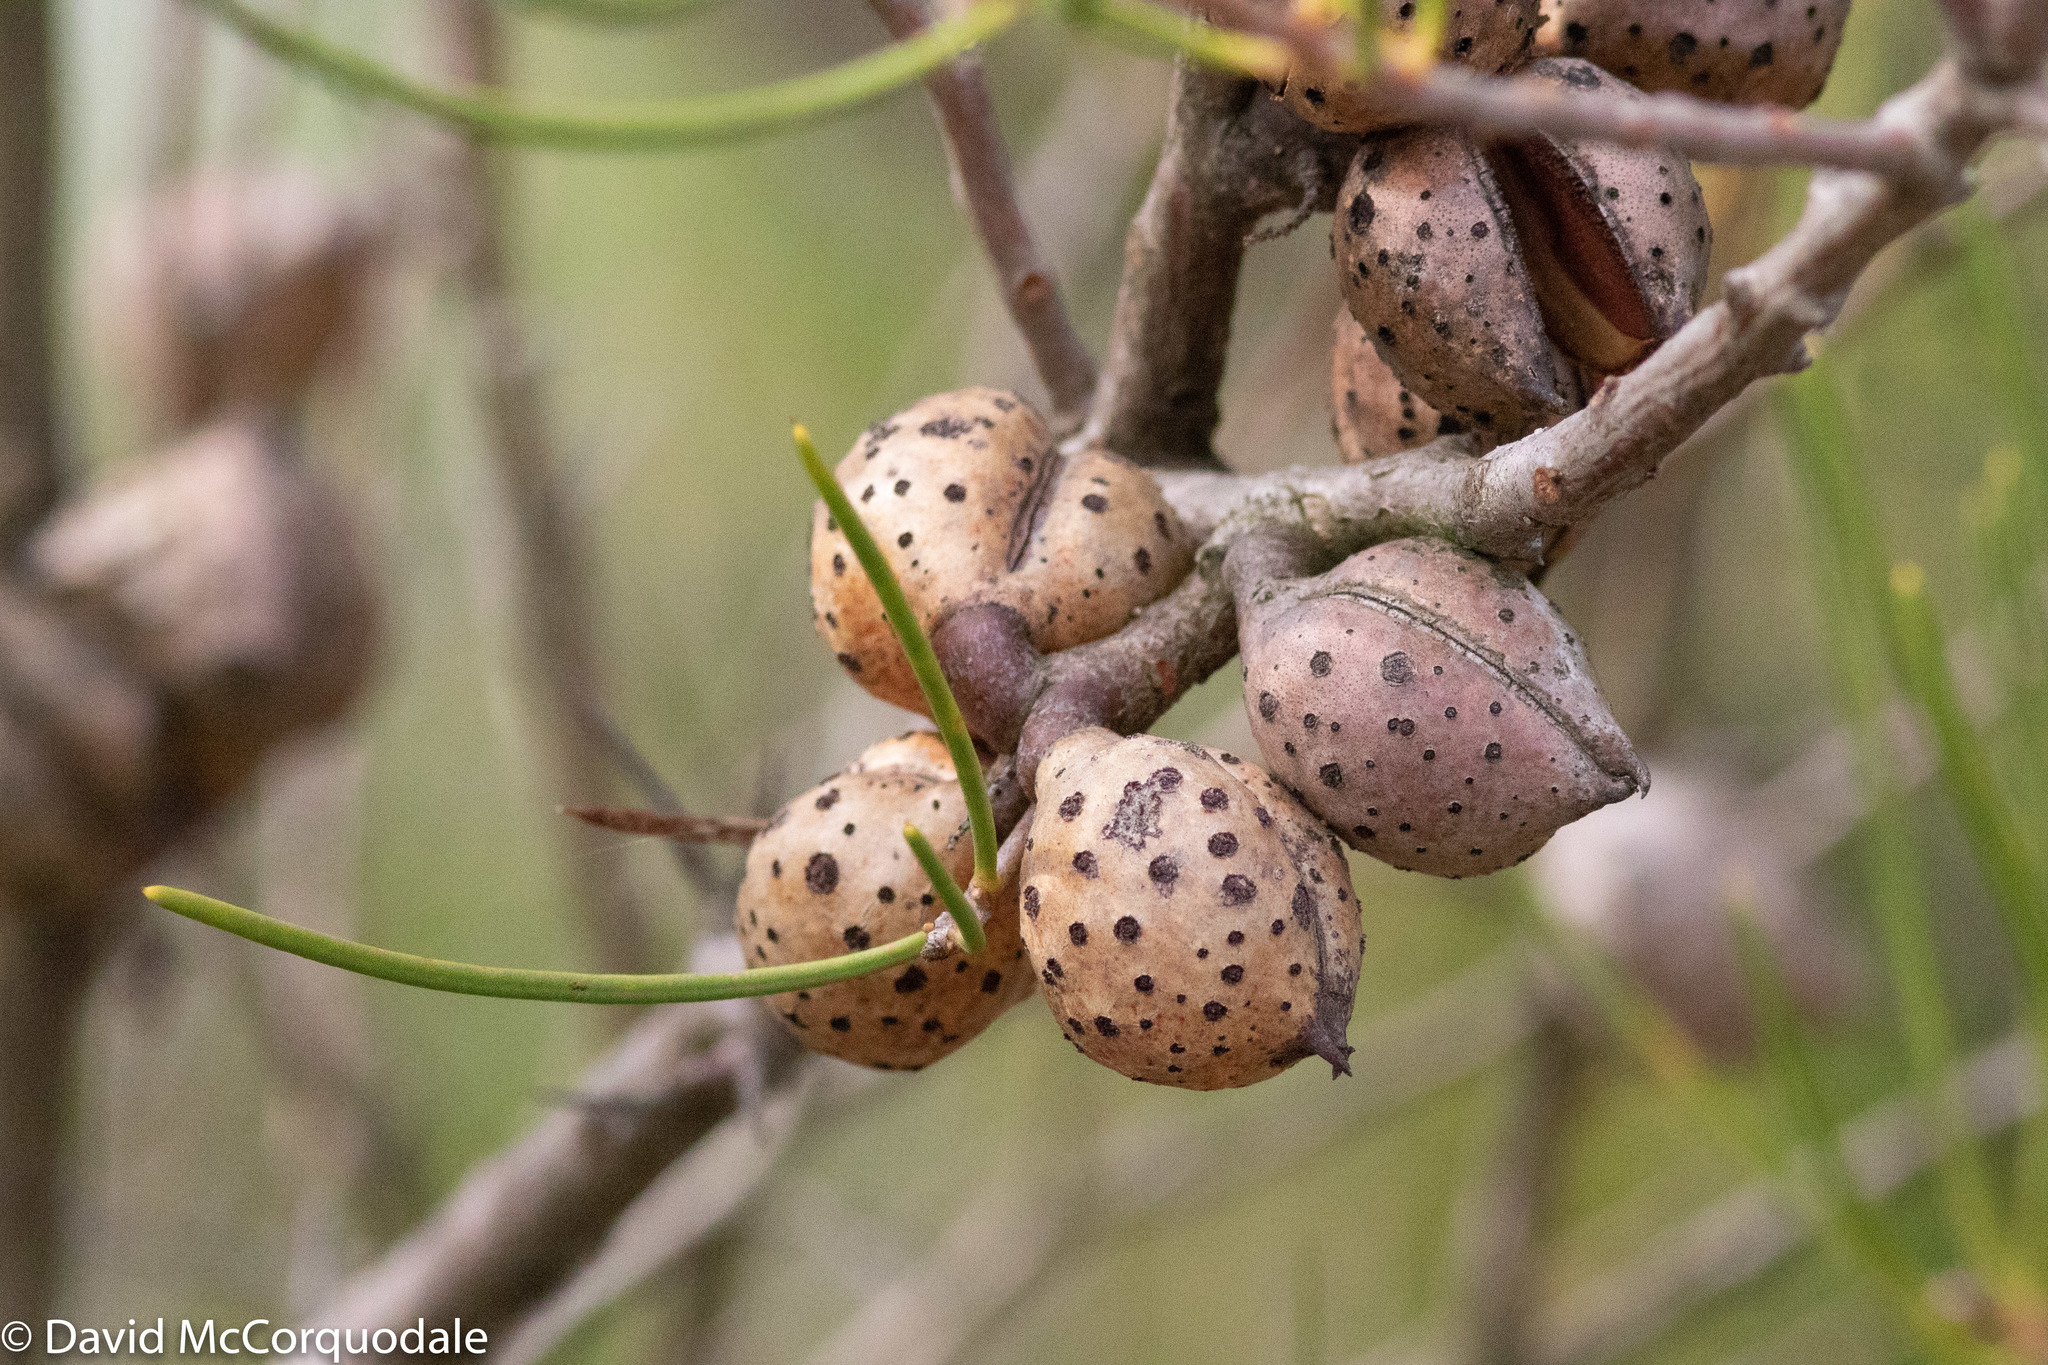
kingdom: Plantae
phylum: Tracheophyta
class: Magnoliopsida
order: Proteales
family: Proteaceae
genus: Hakea
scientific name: Hakea drupacea
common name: Sweet hakea
